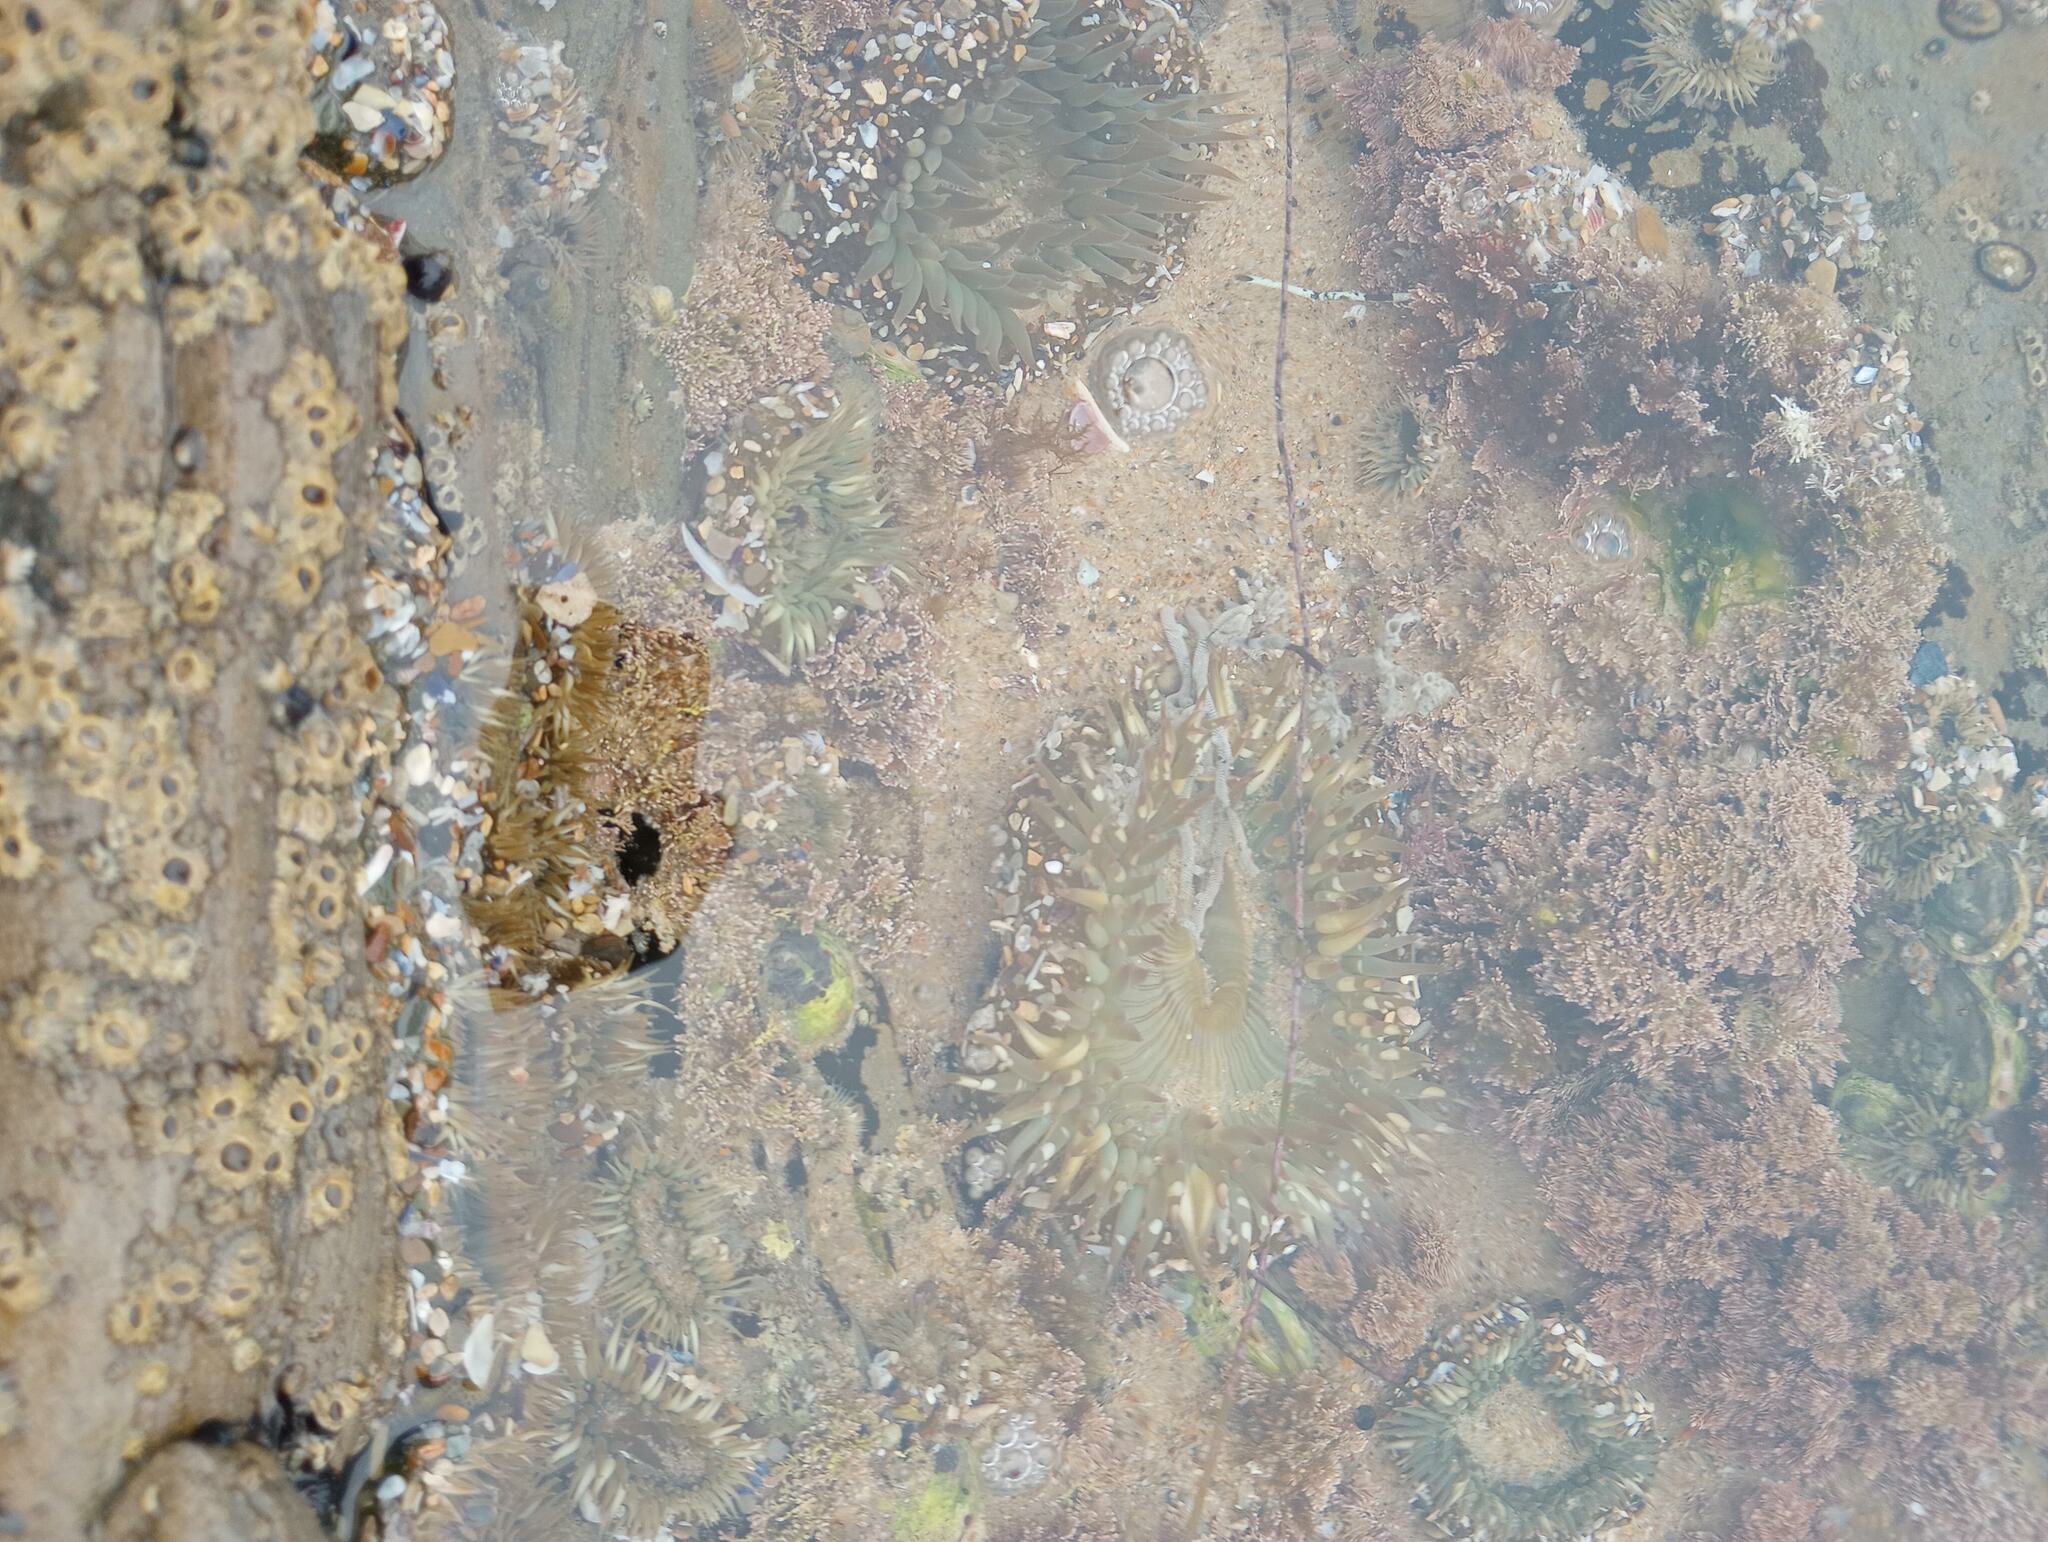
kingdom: Animalia
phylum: Cnidaria
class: Anthozoa
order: Actiniaria
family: Actiniidae
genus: Anthopleura
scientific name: Anthopleura sola
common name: Sun anemone
